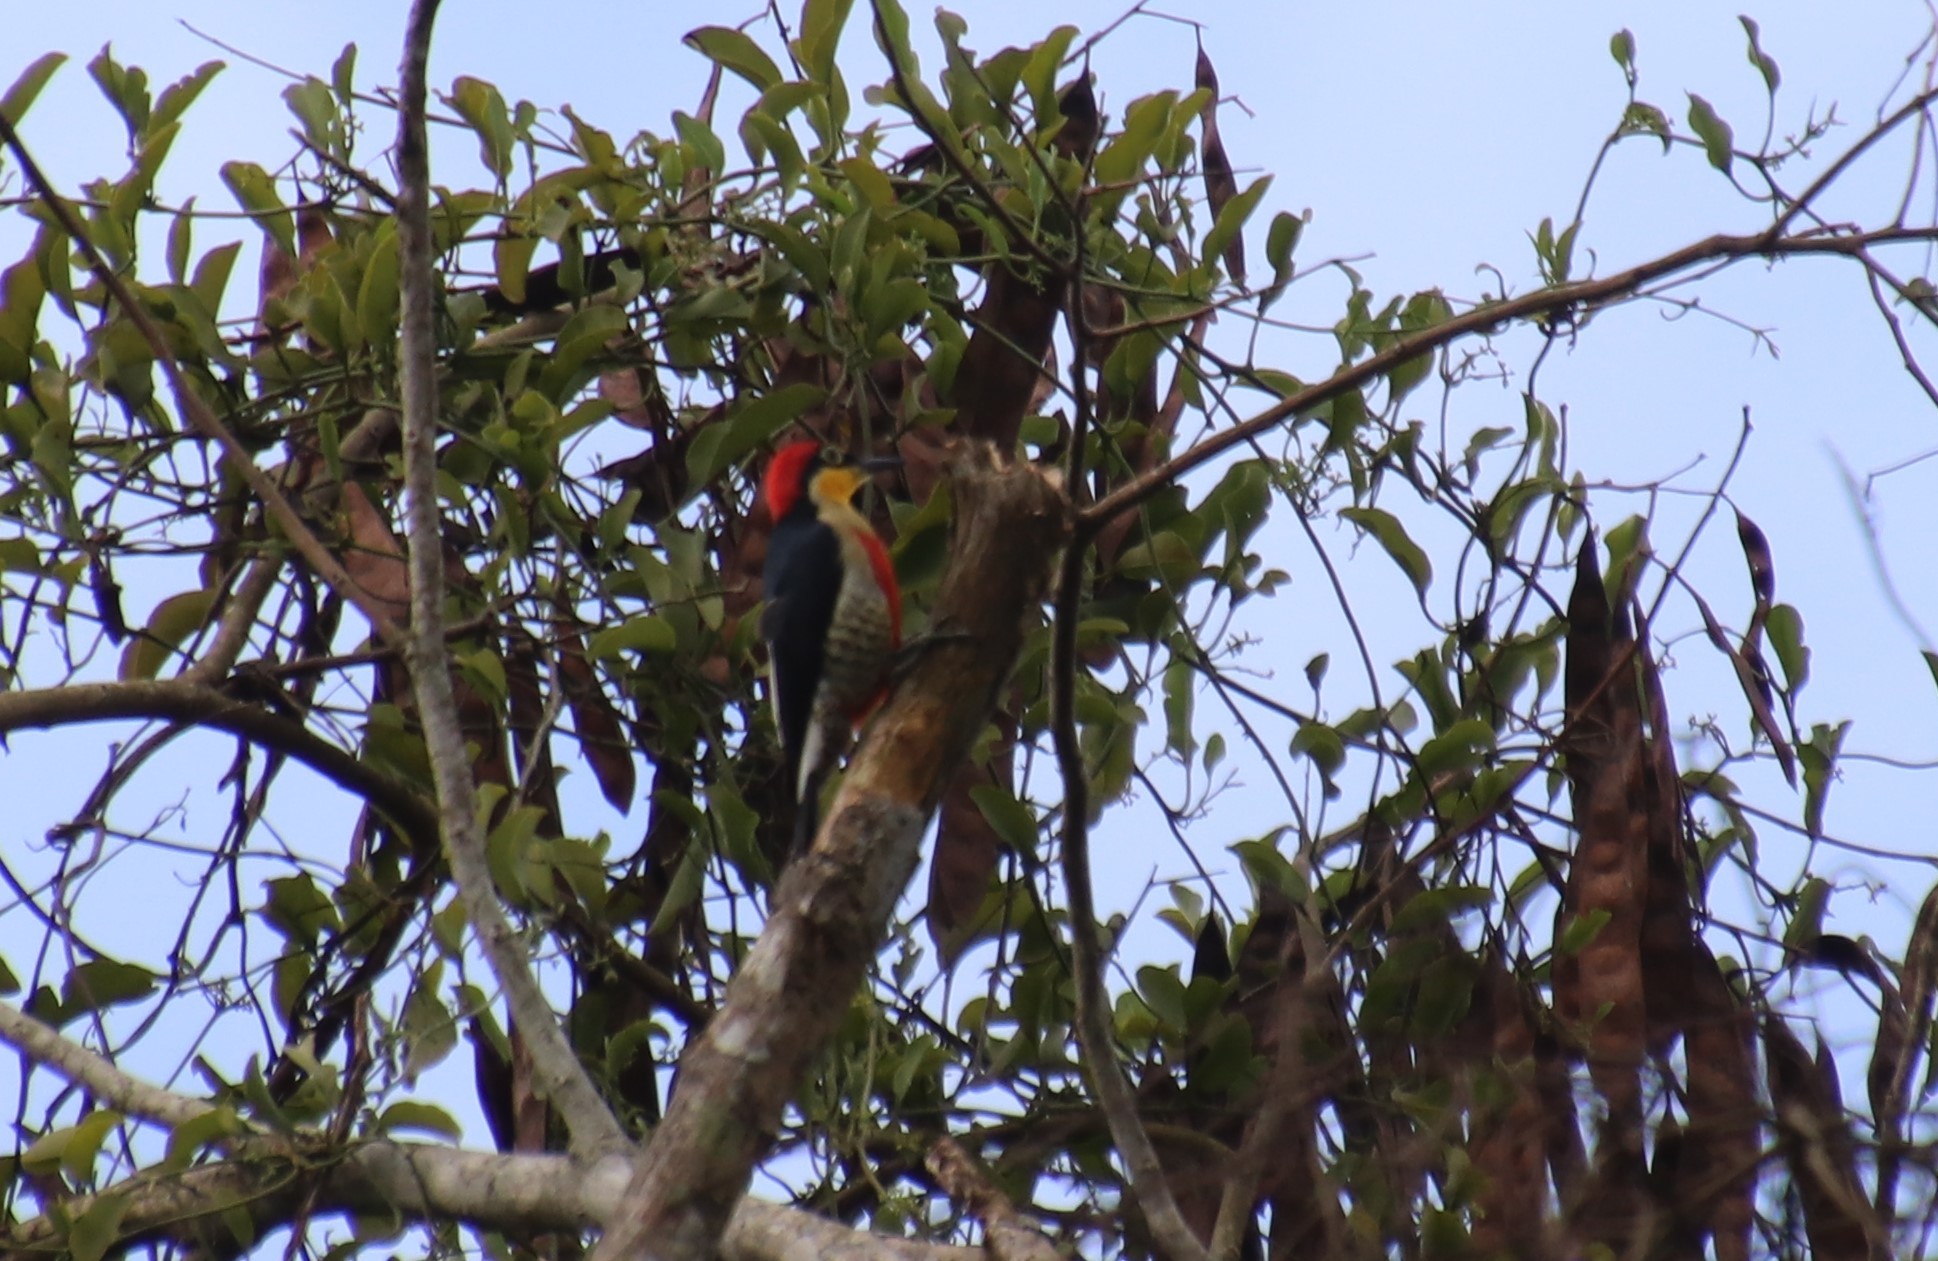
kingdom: Animalia
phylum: Chordata
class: Aves
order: Piciformes
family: Picidae
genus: Melanerpes
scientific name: Melanerpes flavifrons
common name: Yellow-fronted woodpecker
